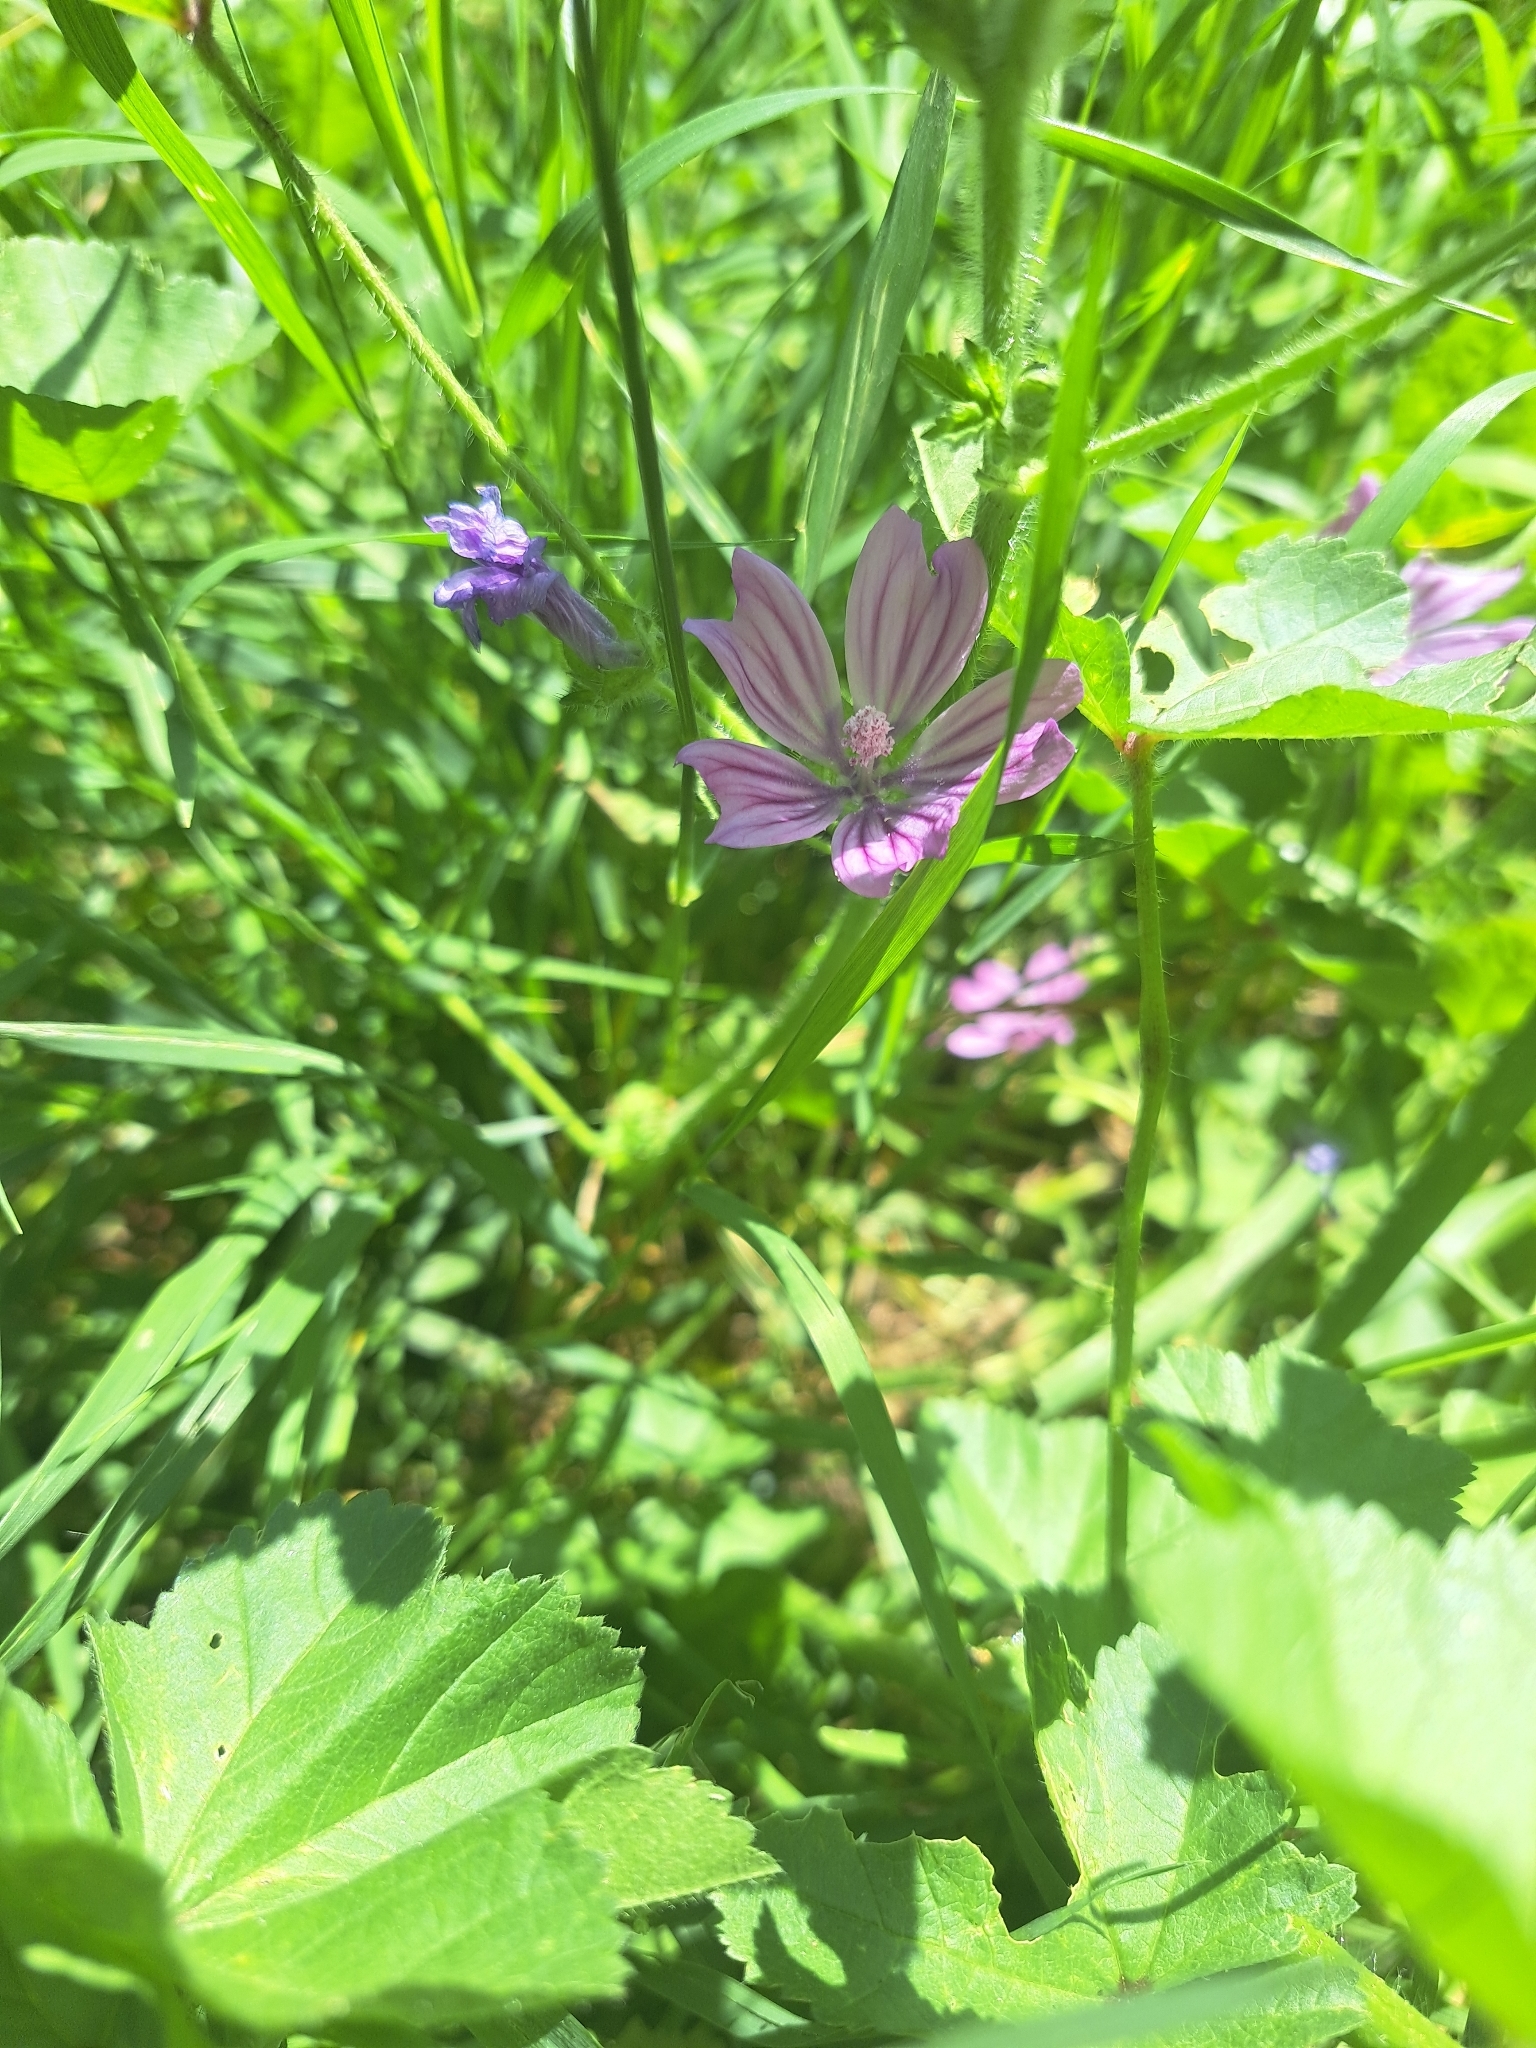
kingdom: Plantae
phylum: Tracheophyta
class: Magnoliopsida
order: Malvales
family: Malvaceae
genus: Malva
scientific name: Malva sylvestris
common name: Common mallow
